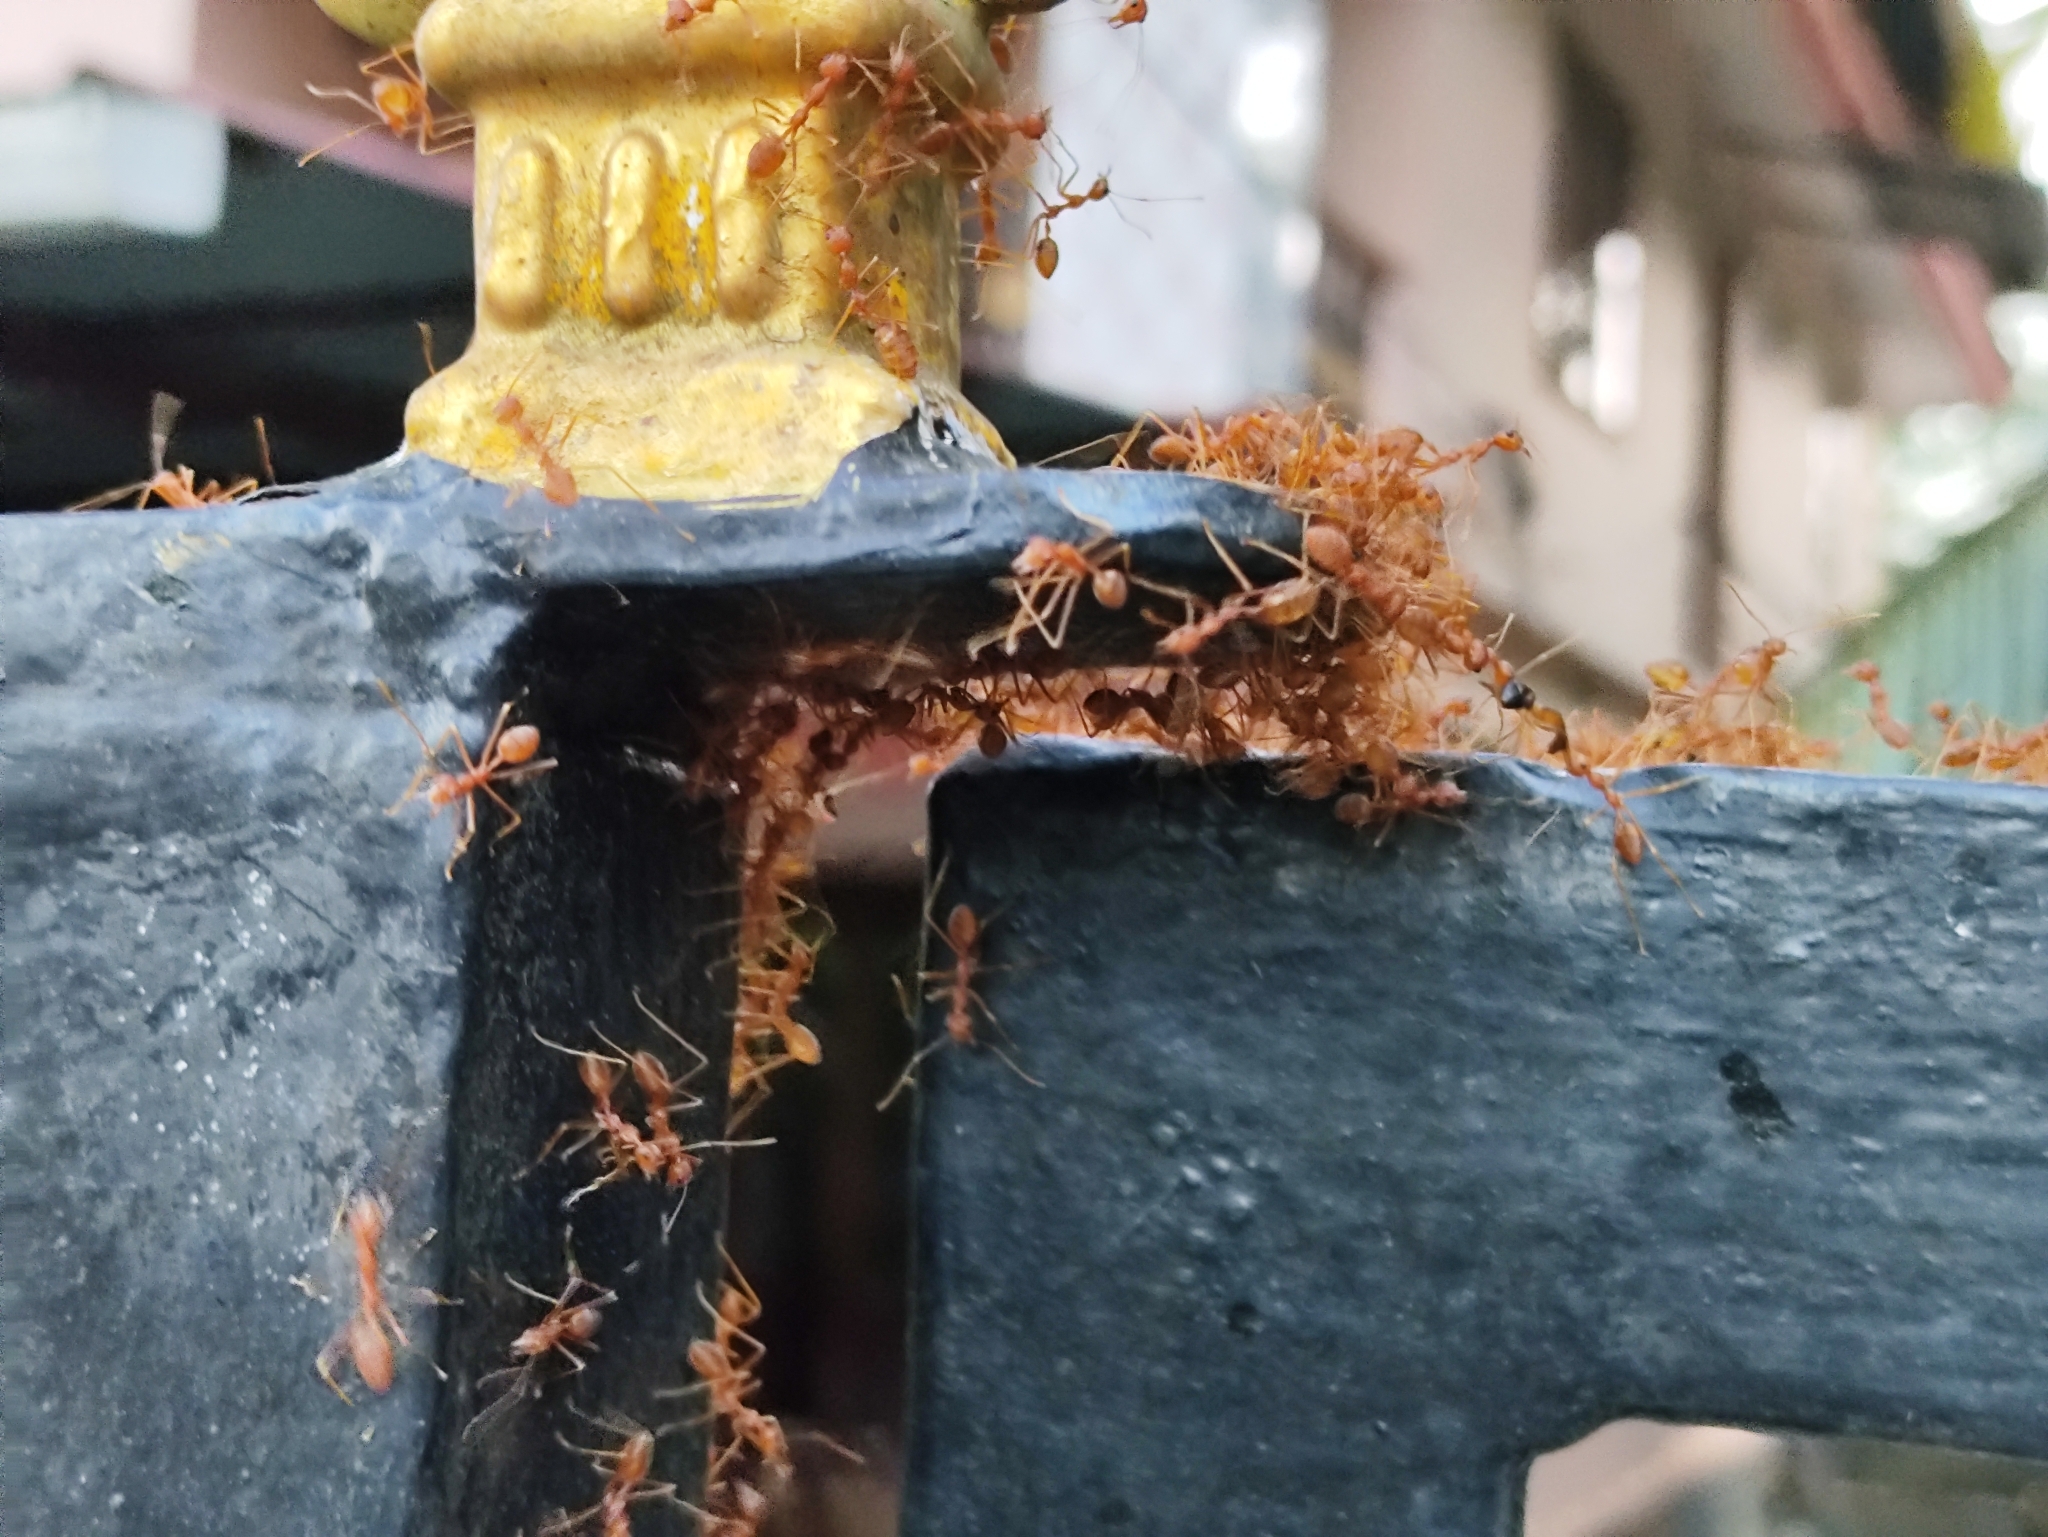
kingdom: Animalia
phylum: Arthropoda
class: Insecta
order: Hymenoptera
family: Formicidae
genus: Oecophylla
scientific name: Oecophylla smaragdina
